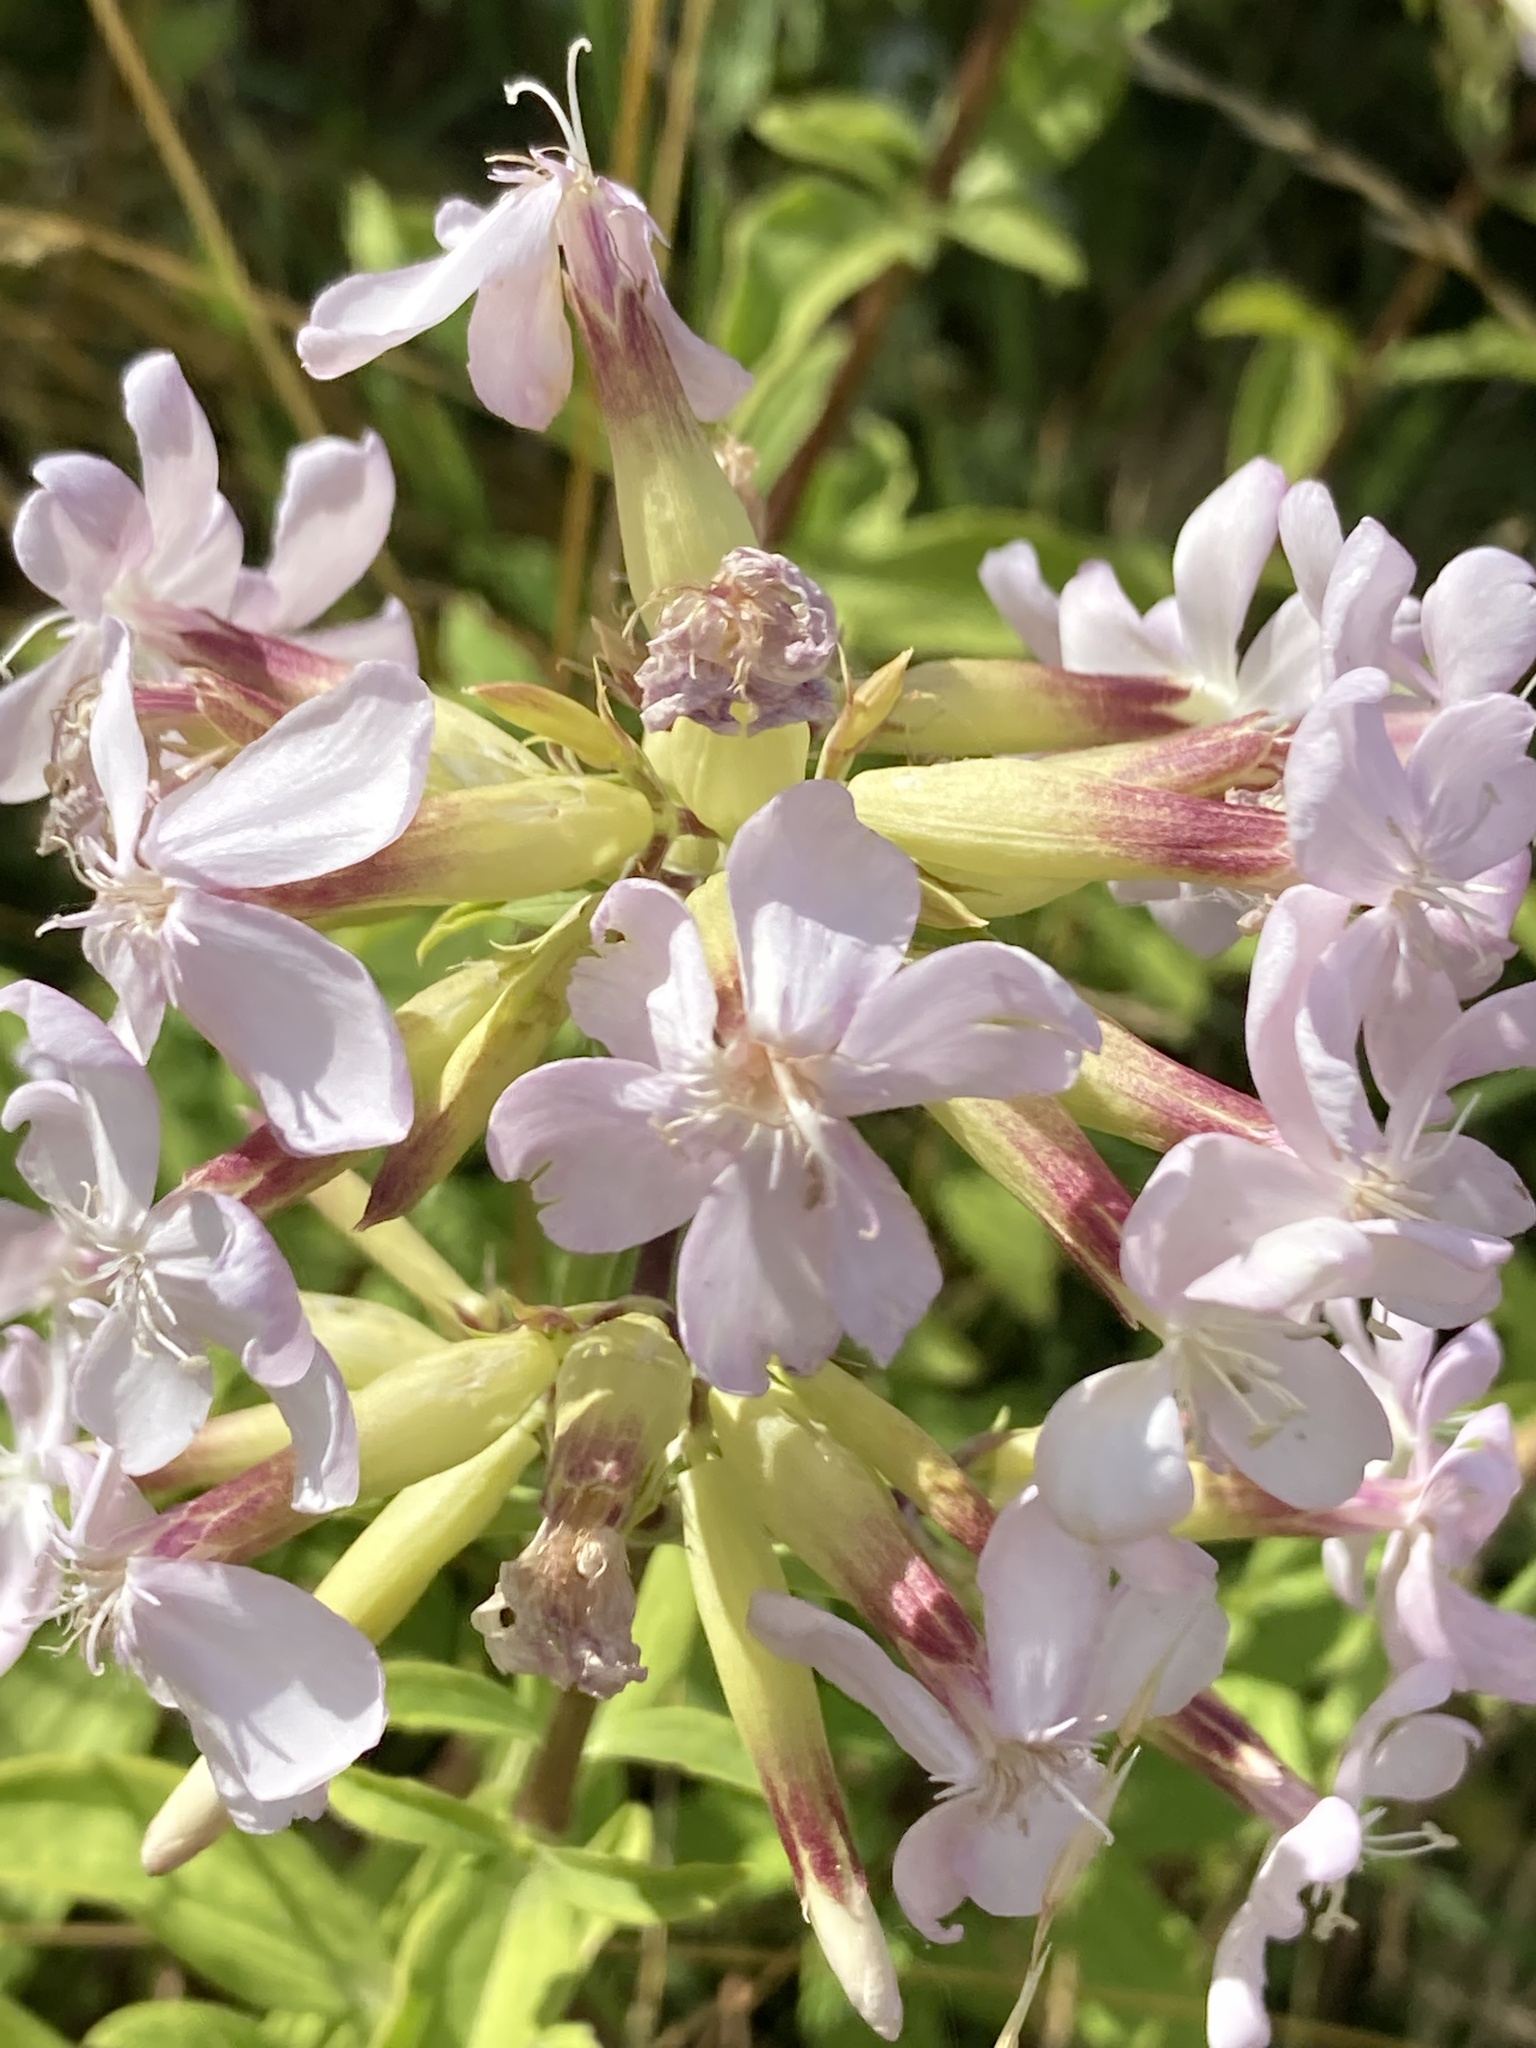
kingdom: Plantae
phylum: Tracheophyta
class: Magnoliopsida
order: Caryophyllales
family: Caryophyllaceae
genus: Saponaria
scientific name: Saponaria officinalis
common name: Soapwort
